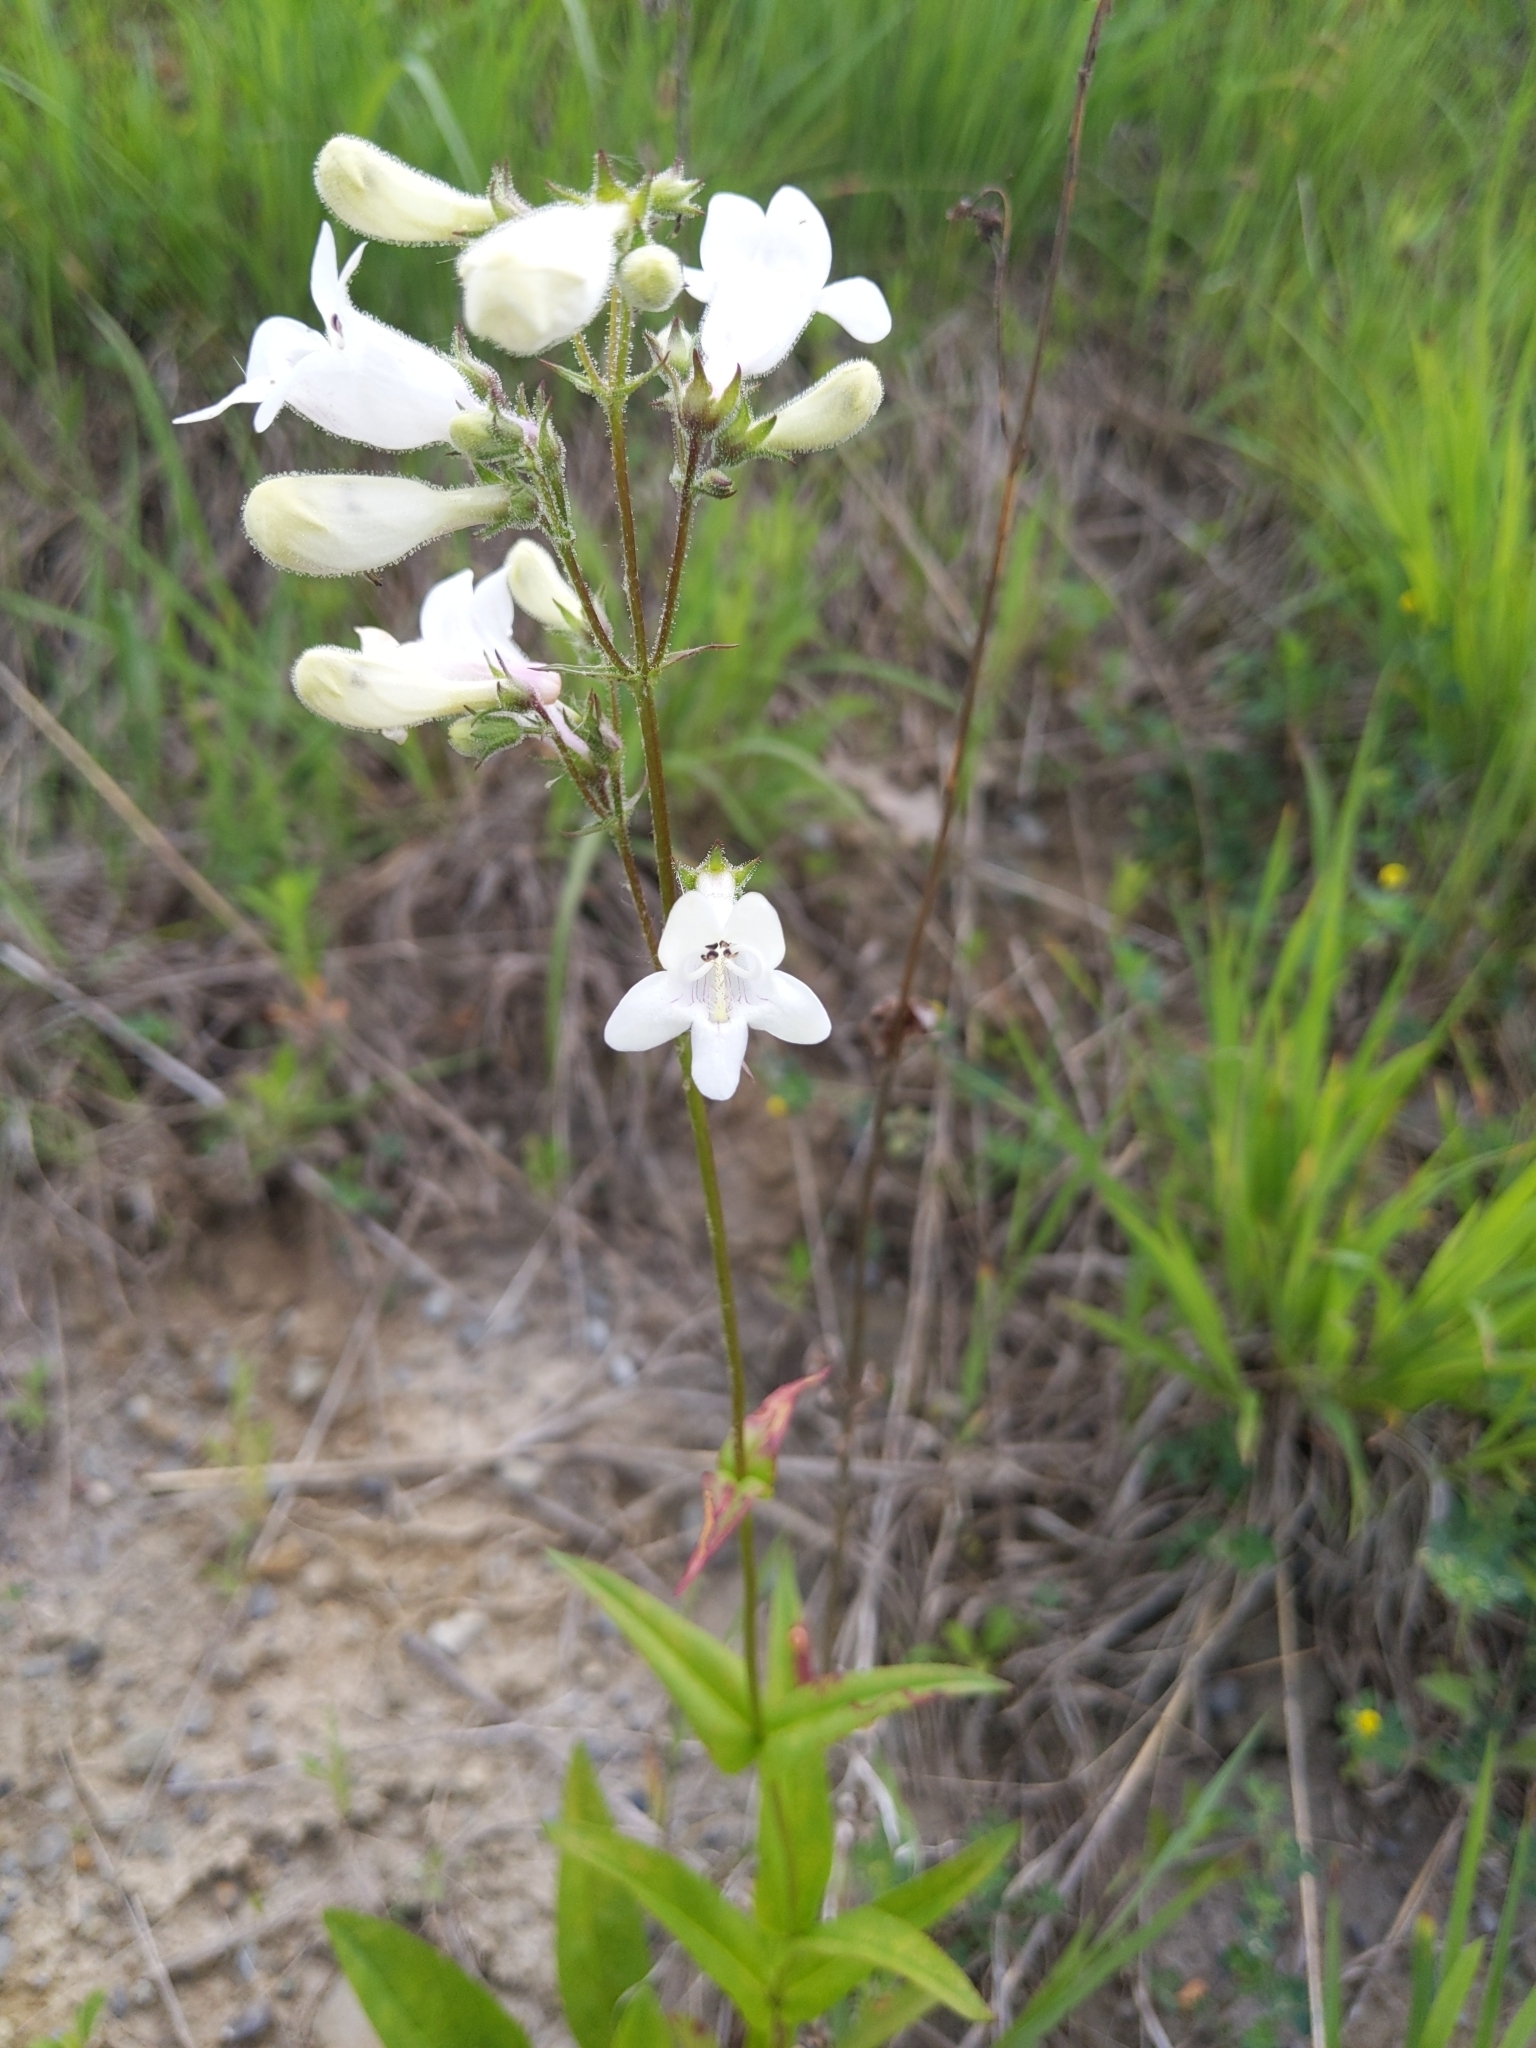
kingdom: Plantae
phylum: Tracheophyta
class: Magnoliopsida
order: Lamiales
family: Plantaginaceae
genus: Penstemon
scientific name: Penstemon digitalis
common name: Foxglove beardtongue
